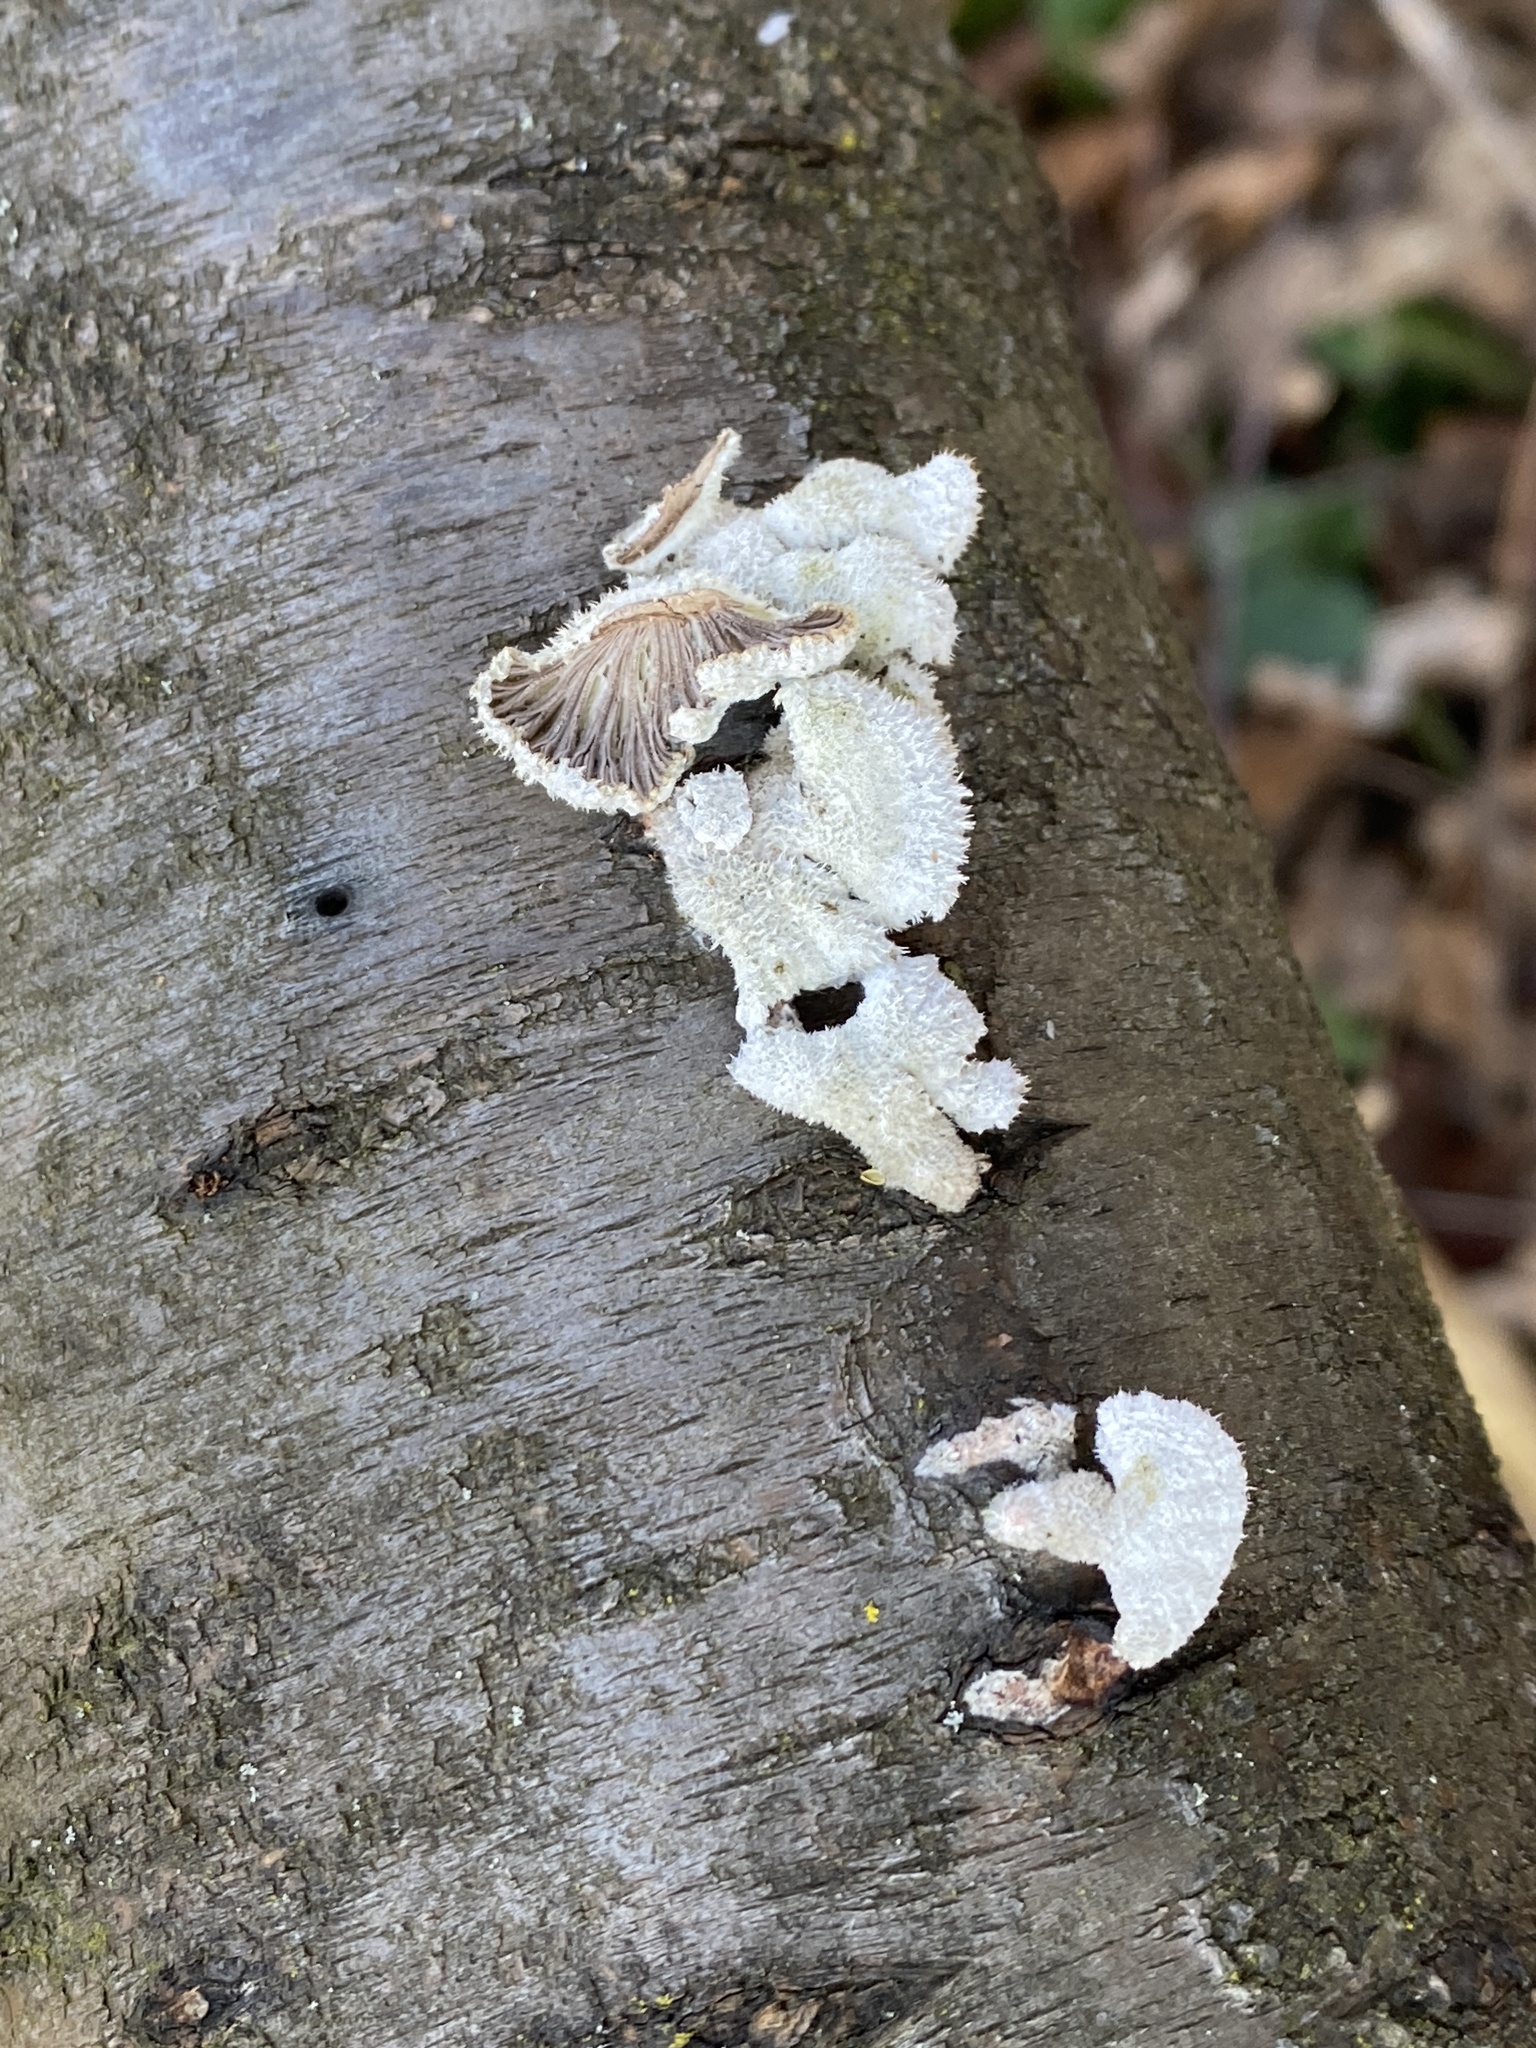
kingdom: Fungi
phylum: Basidiomycota
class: Agaricomycetes
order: Agaricales
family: Schizophyllaceae
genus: Schizophyllum
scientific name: Schizophyllum commune
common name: Common porecrust
